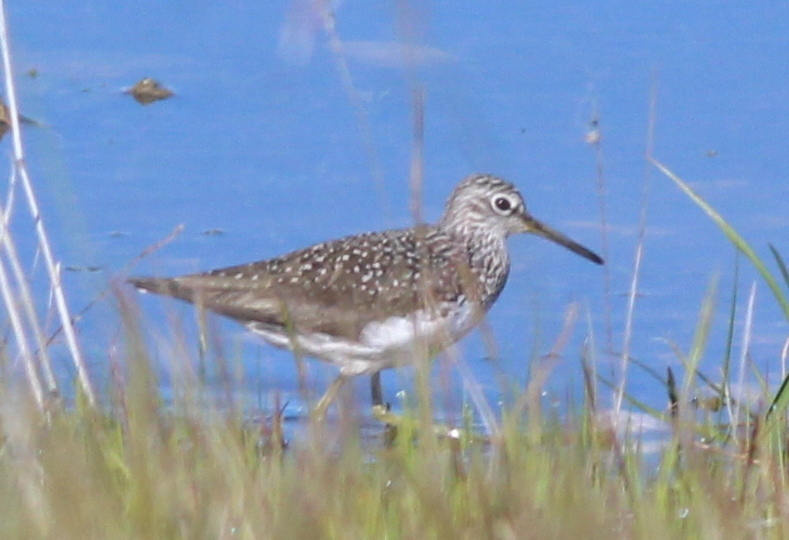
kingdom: Animalia
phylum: Chordata
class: Aves
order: Charadriiformes
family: Scolopacidae
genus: Tringa
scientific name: Tringa ochropus
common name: Green sandpiper
